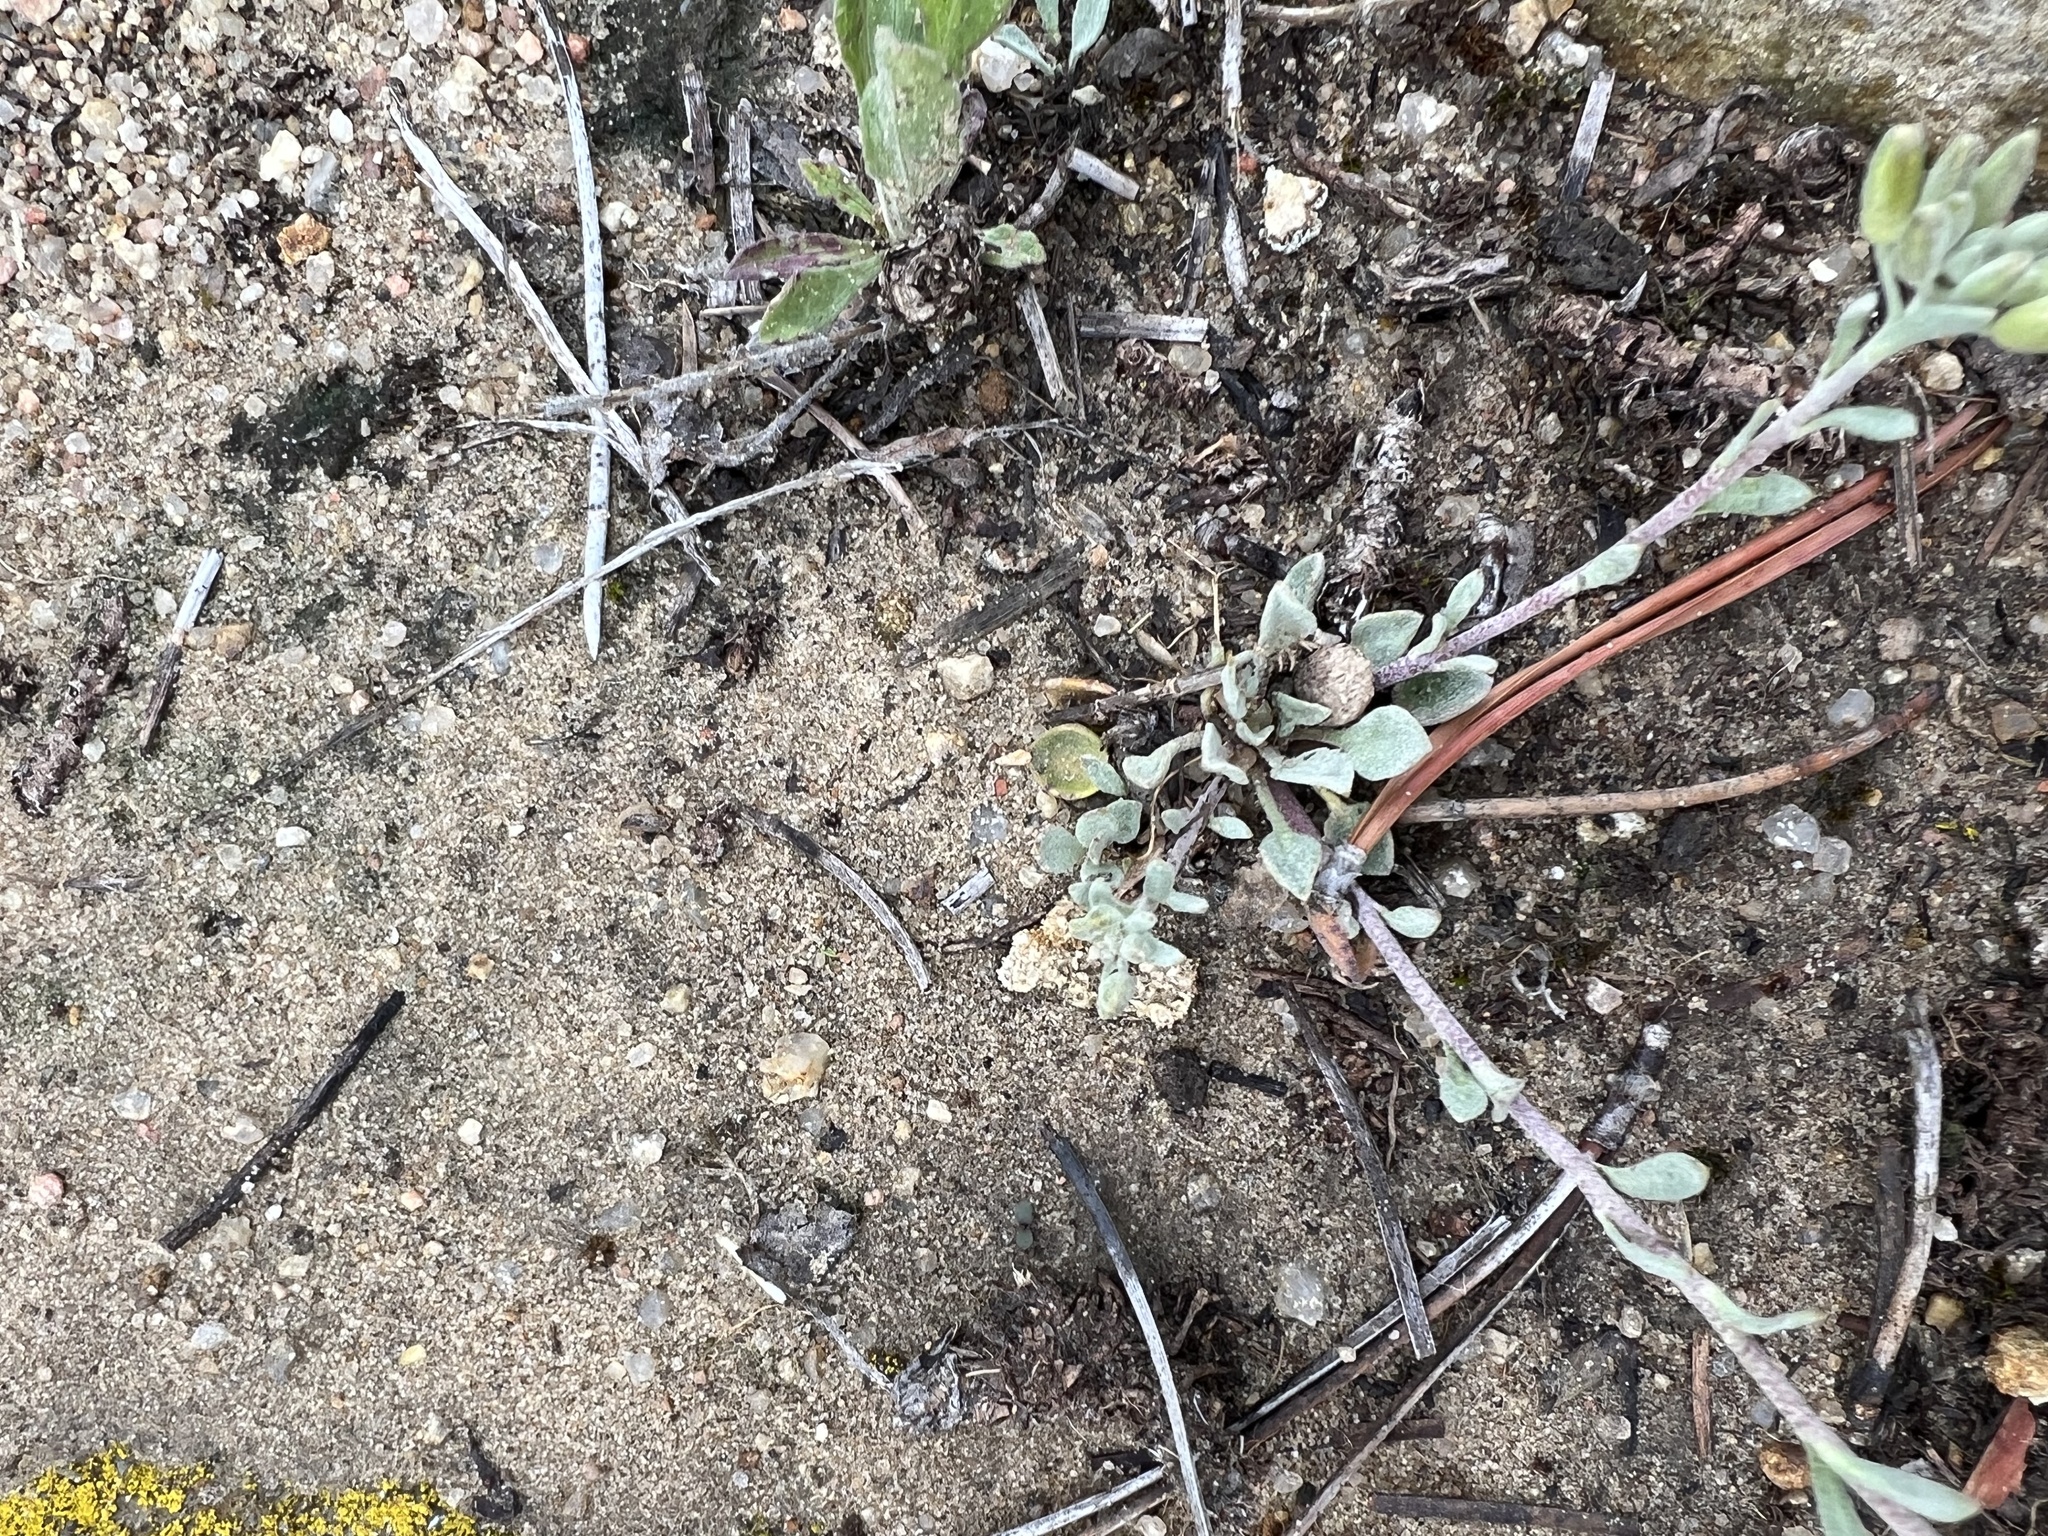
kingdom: Plantae
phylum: Tracheophyta
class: Magnoliopsida
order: Brassicales
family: Brassicaceae
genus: Physaria
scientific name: Physaria montana
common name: Mountain bladderpod
